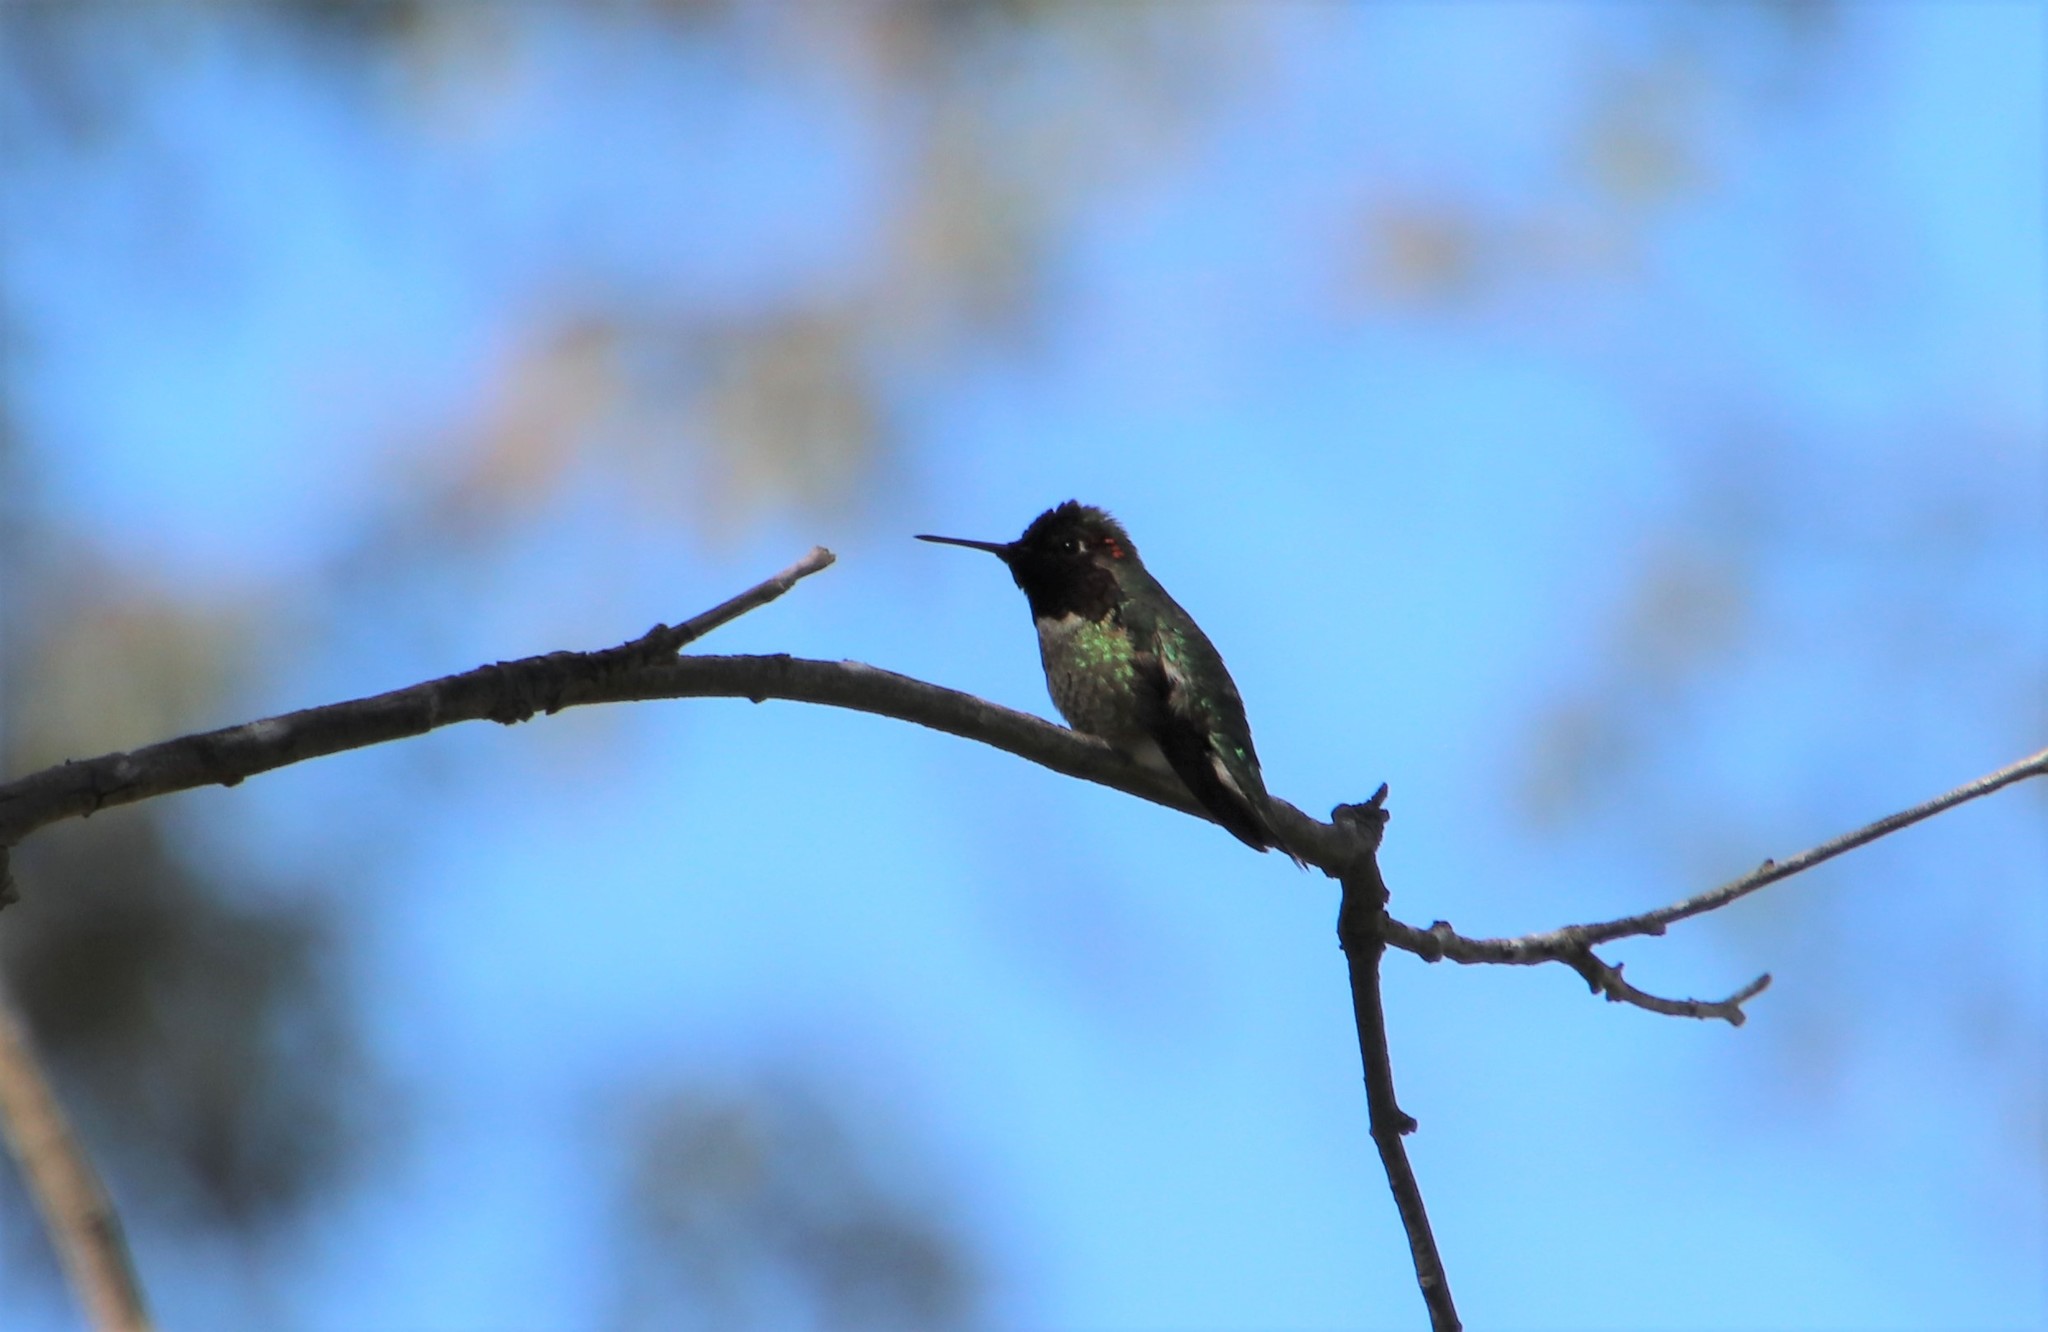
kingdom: Animalia
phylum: Chordata
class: Aves
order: Apodiformes
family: Trochilidae
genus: Calypte
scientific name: Calypte anna
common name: Anna's hummingbird
